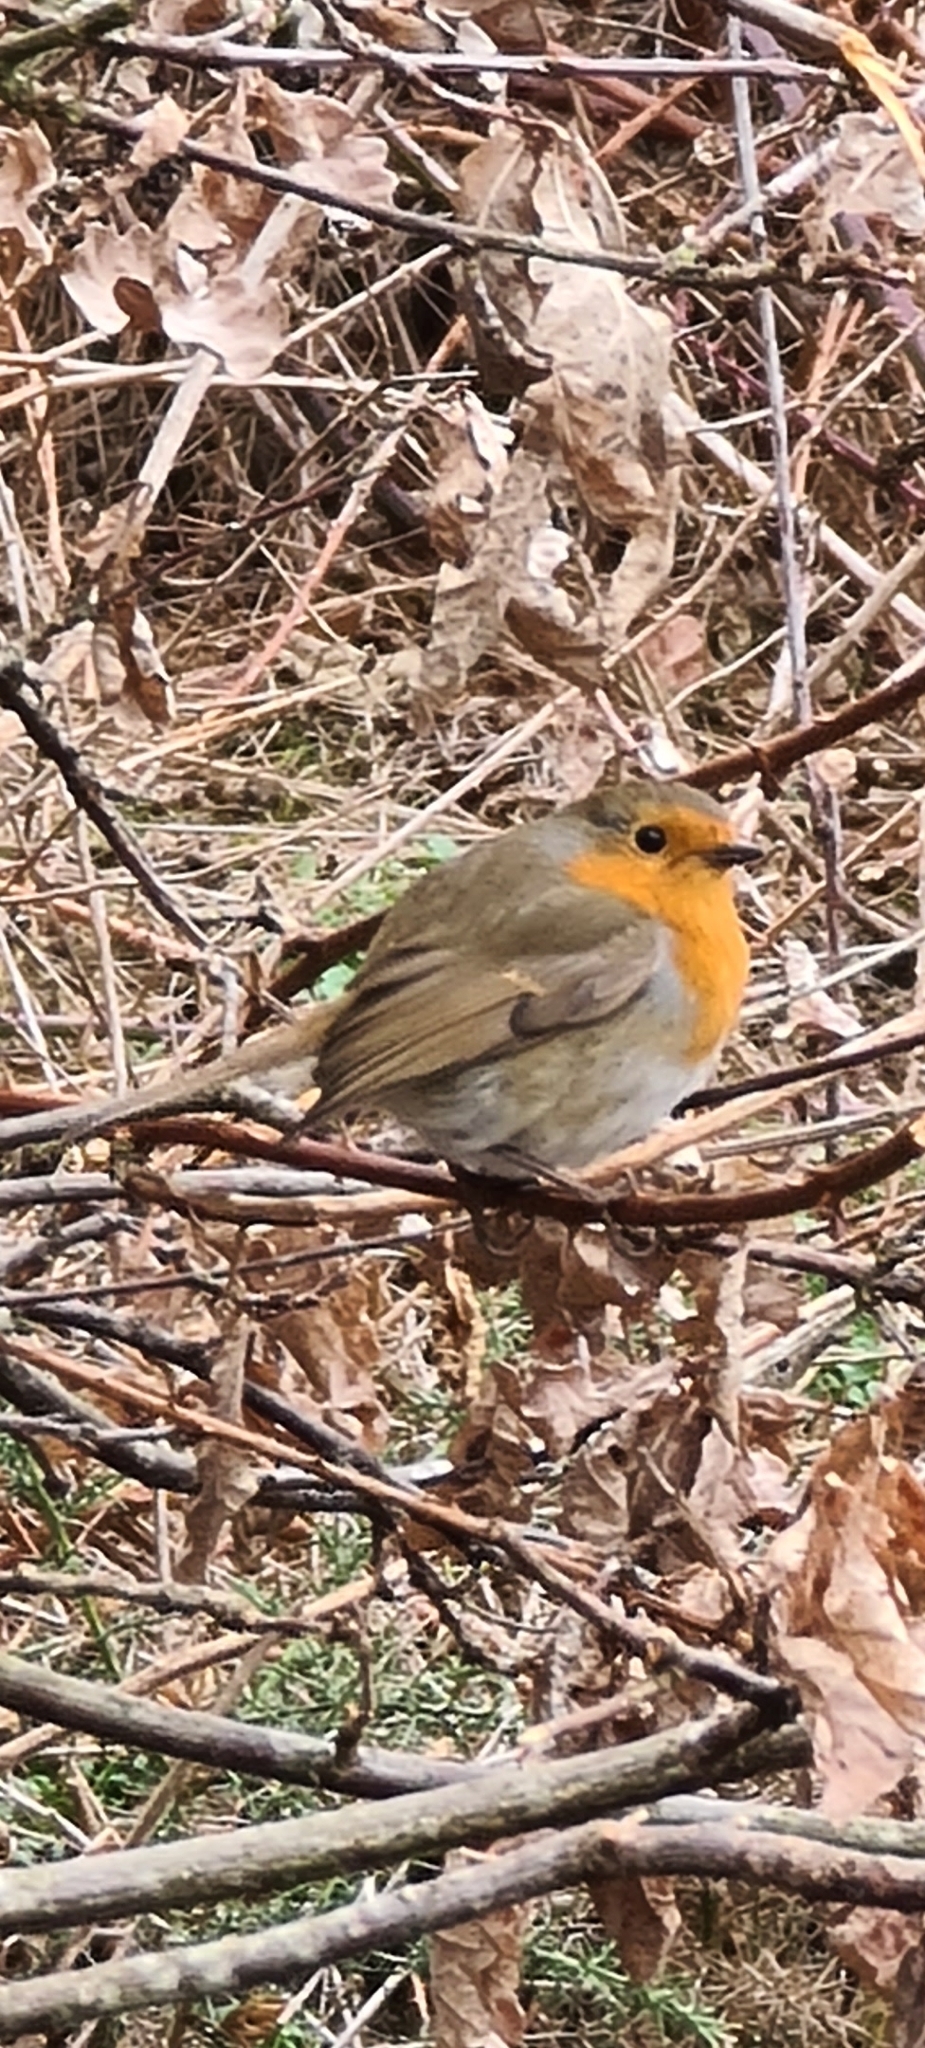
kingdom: Animalia
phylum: Chordata
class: Aves
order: Passeriformes
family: Muscicapidae
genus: Erithacus
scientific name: Erithacus rubecula
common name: European robin
